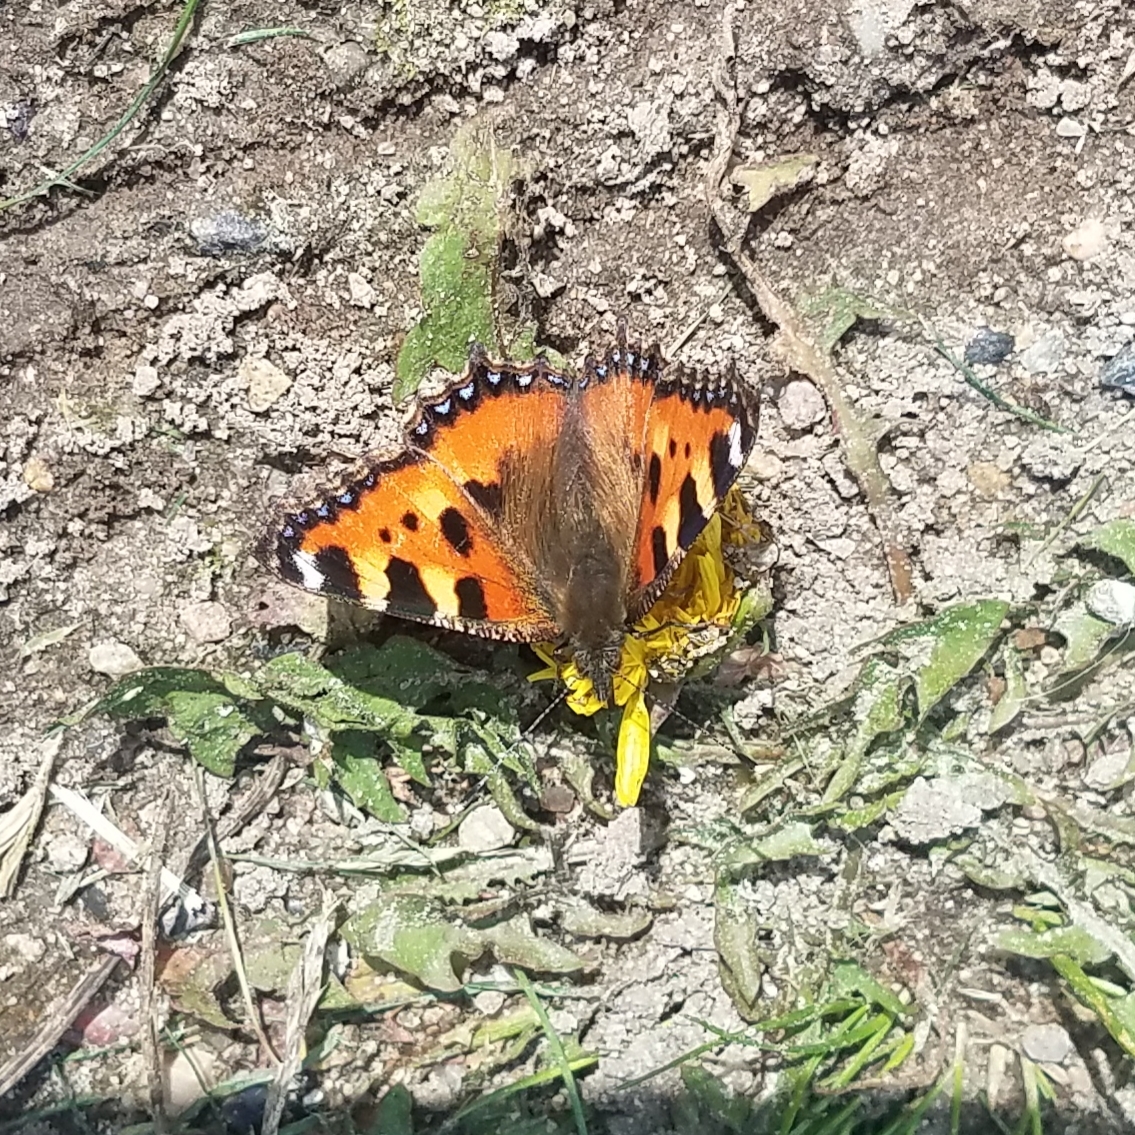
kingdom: Animalia
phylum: Arthropoda
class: Insecta
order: Lepidoptera
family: Nymphalidae
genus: Aglais
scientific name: Aglais urticae
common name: Small tortoiseshell
